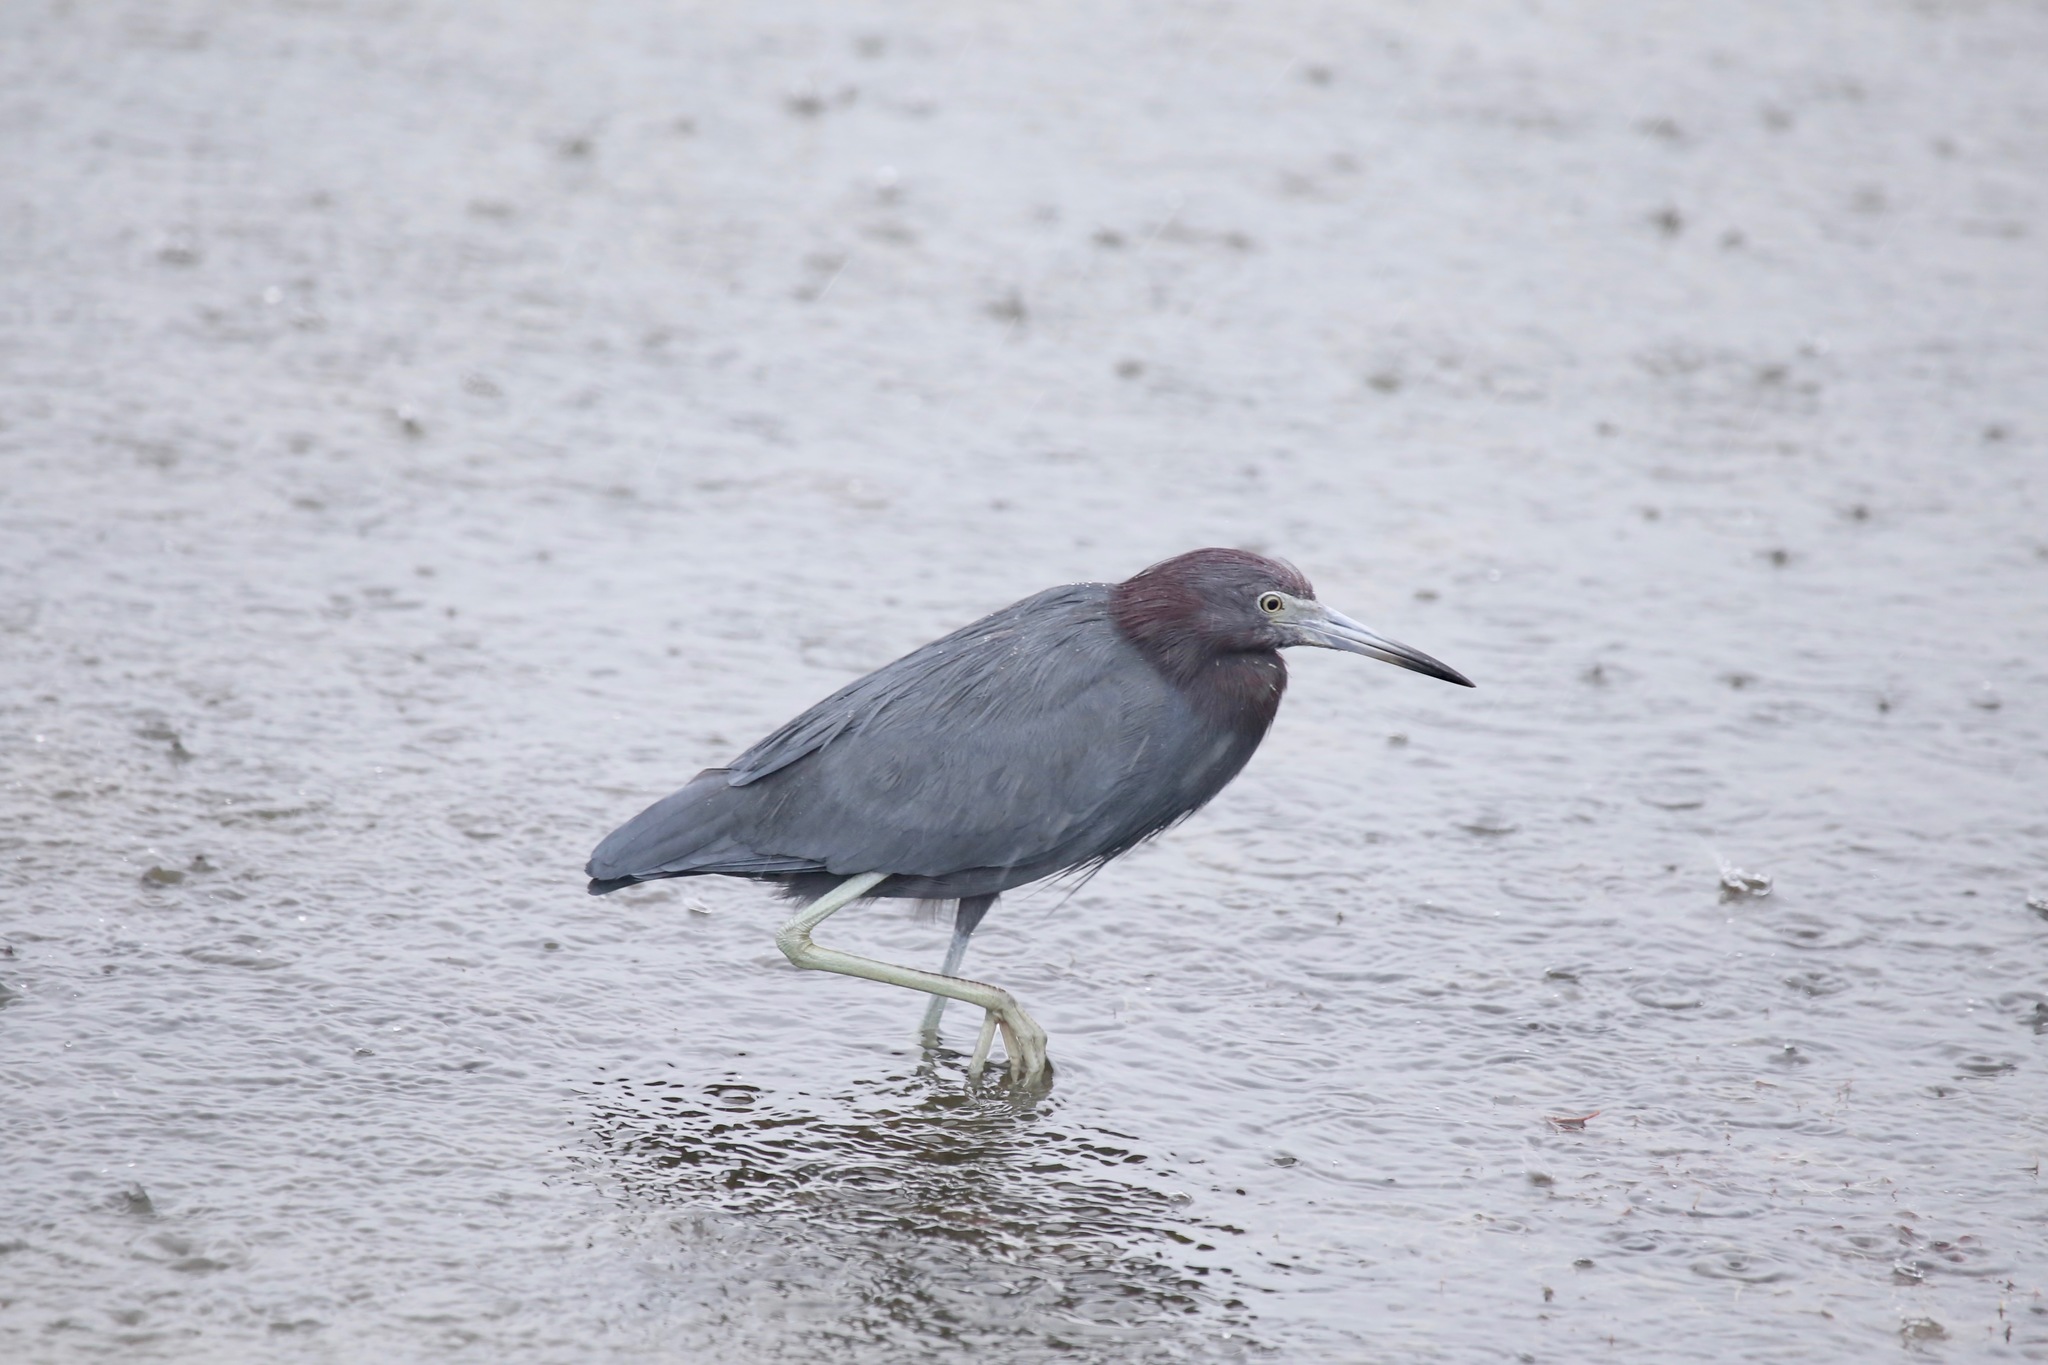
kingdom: Animalia
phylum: Chordata
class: Aves
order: Pelecaniformes
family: Ardeidae
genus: Egretta
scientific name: Egretta caerulea
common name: Little blue heron
